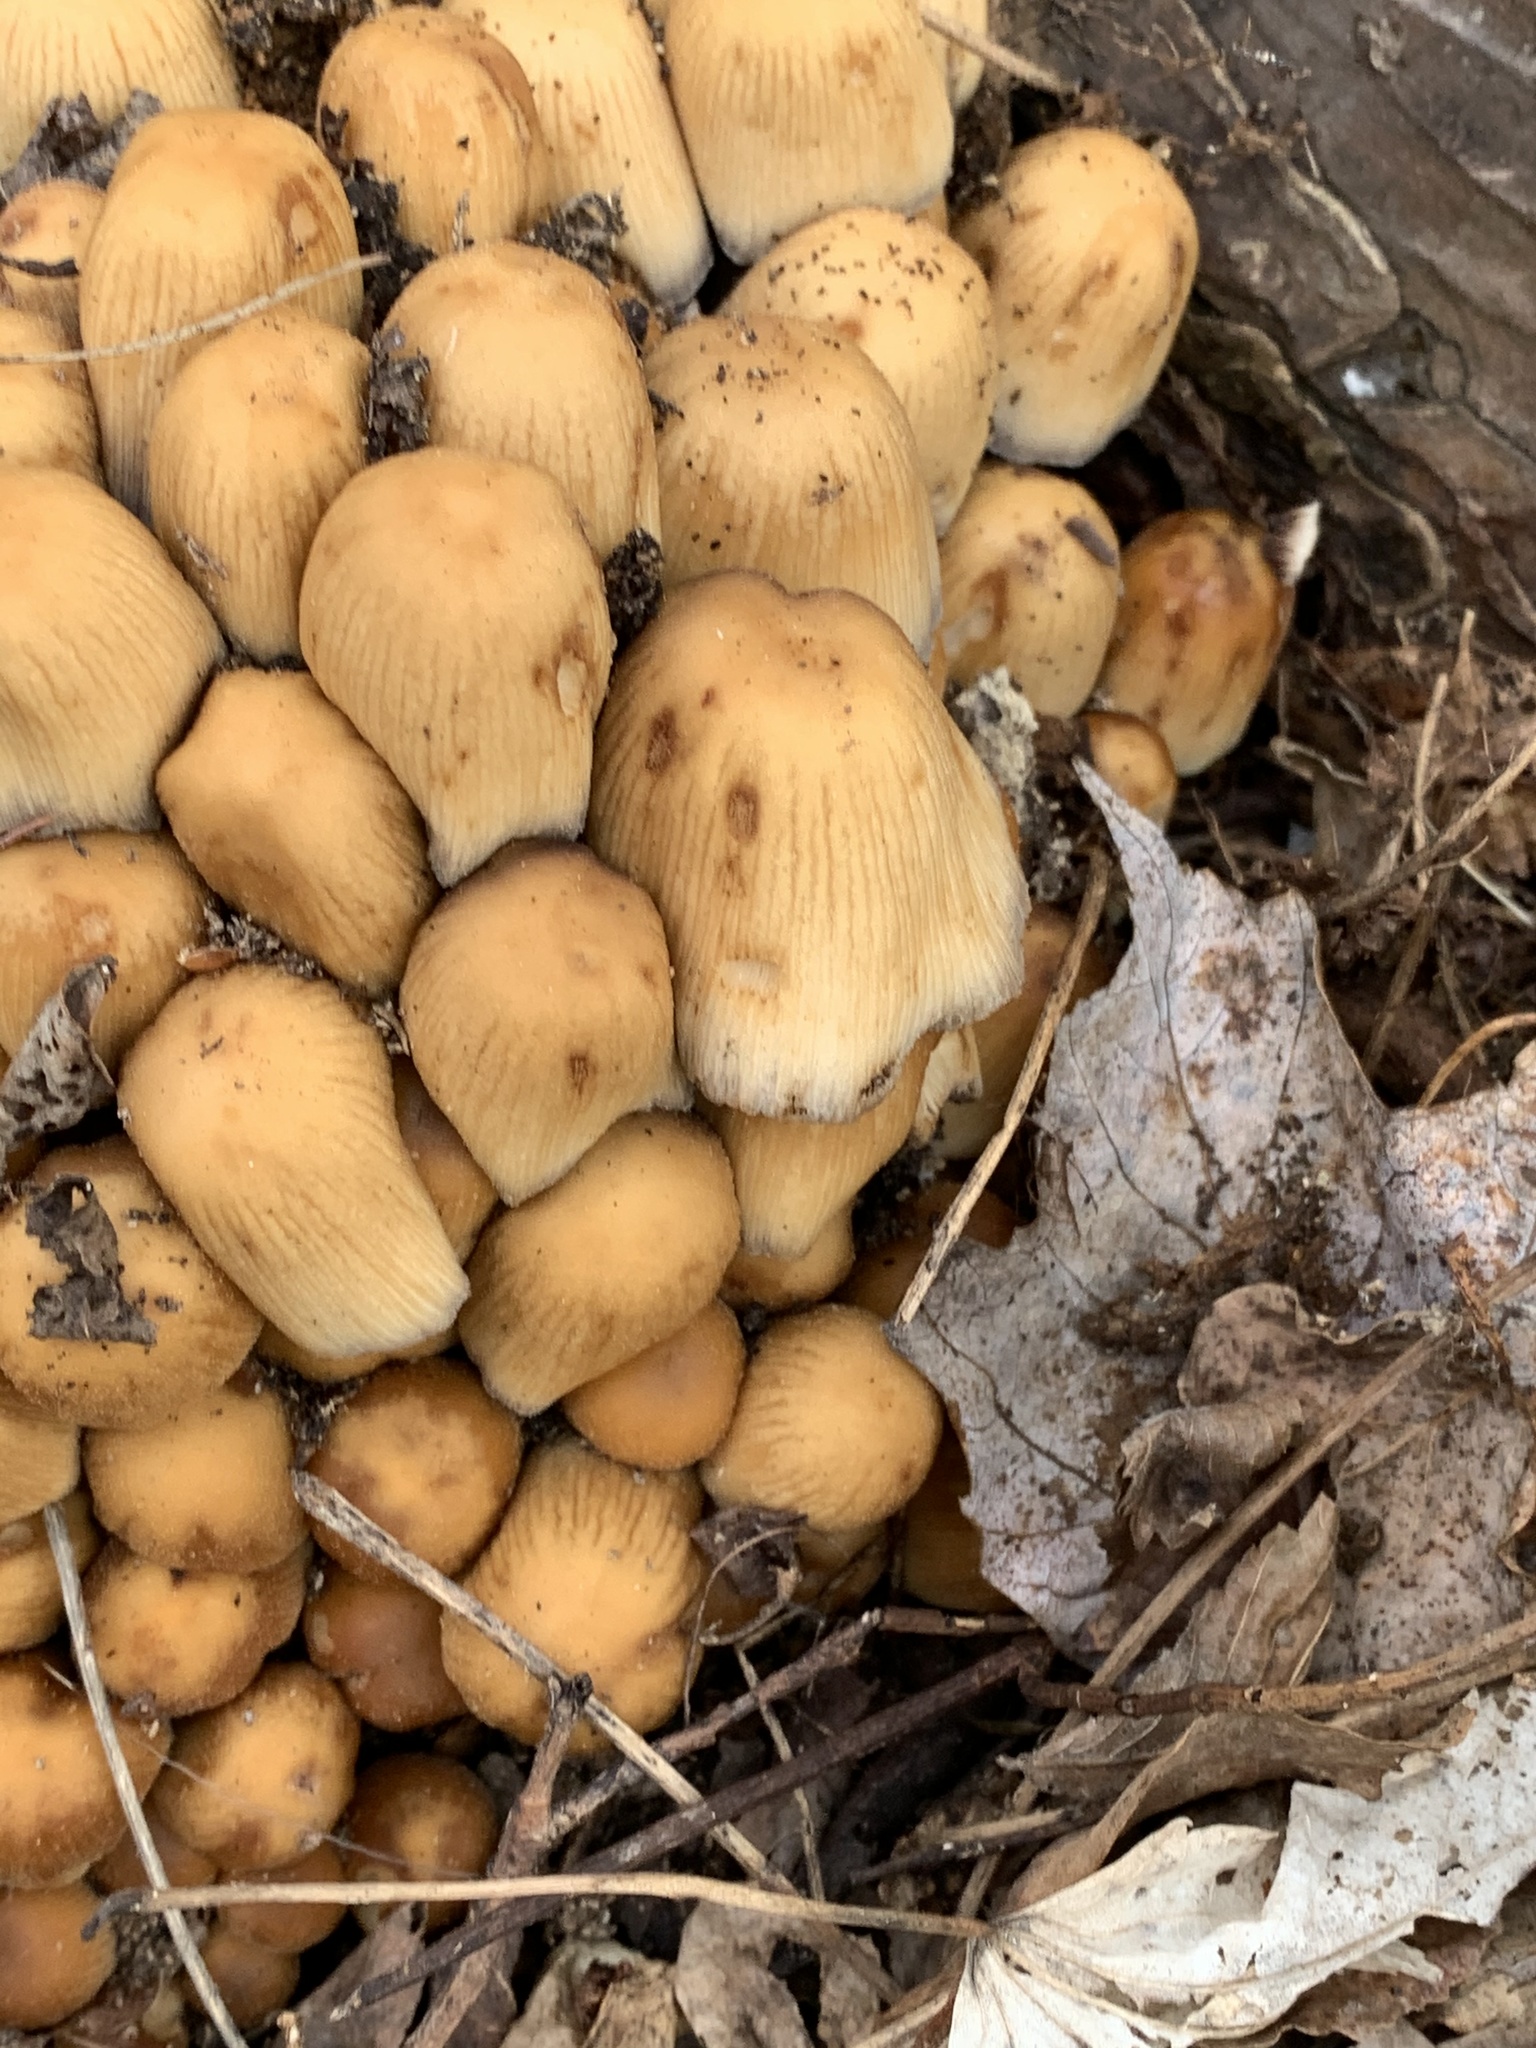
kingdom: Fungi
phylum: Basidiomycota
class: Agaricomycetes
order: Agaricales
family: Psathyrellaceae
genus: Coprinellus
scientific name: Coprinellus micaceus
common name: Glistening ink-cap
